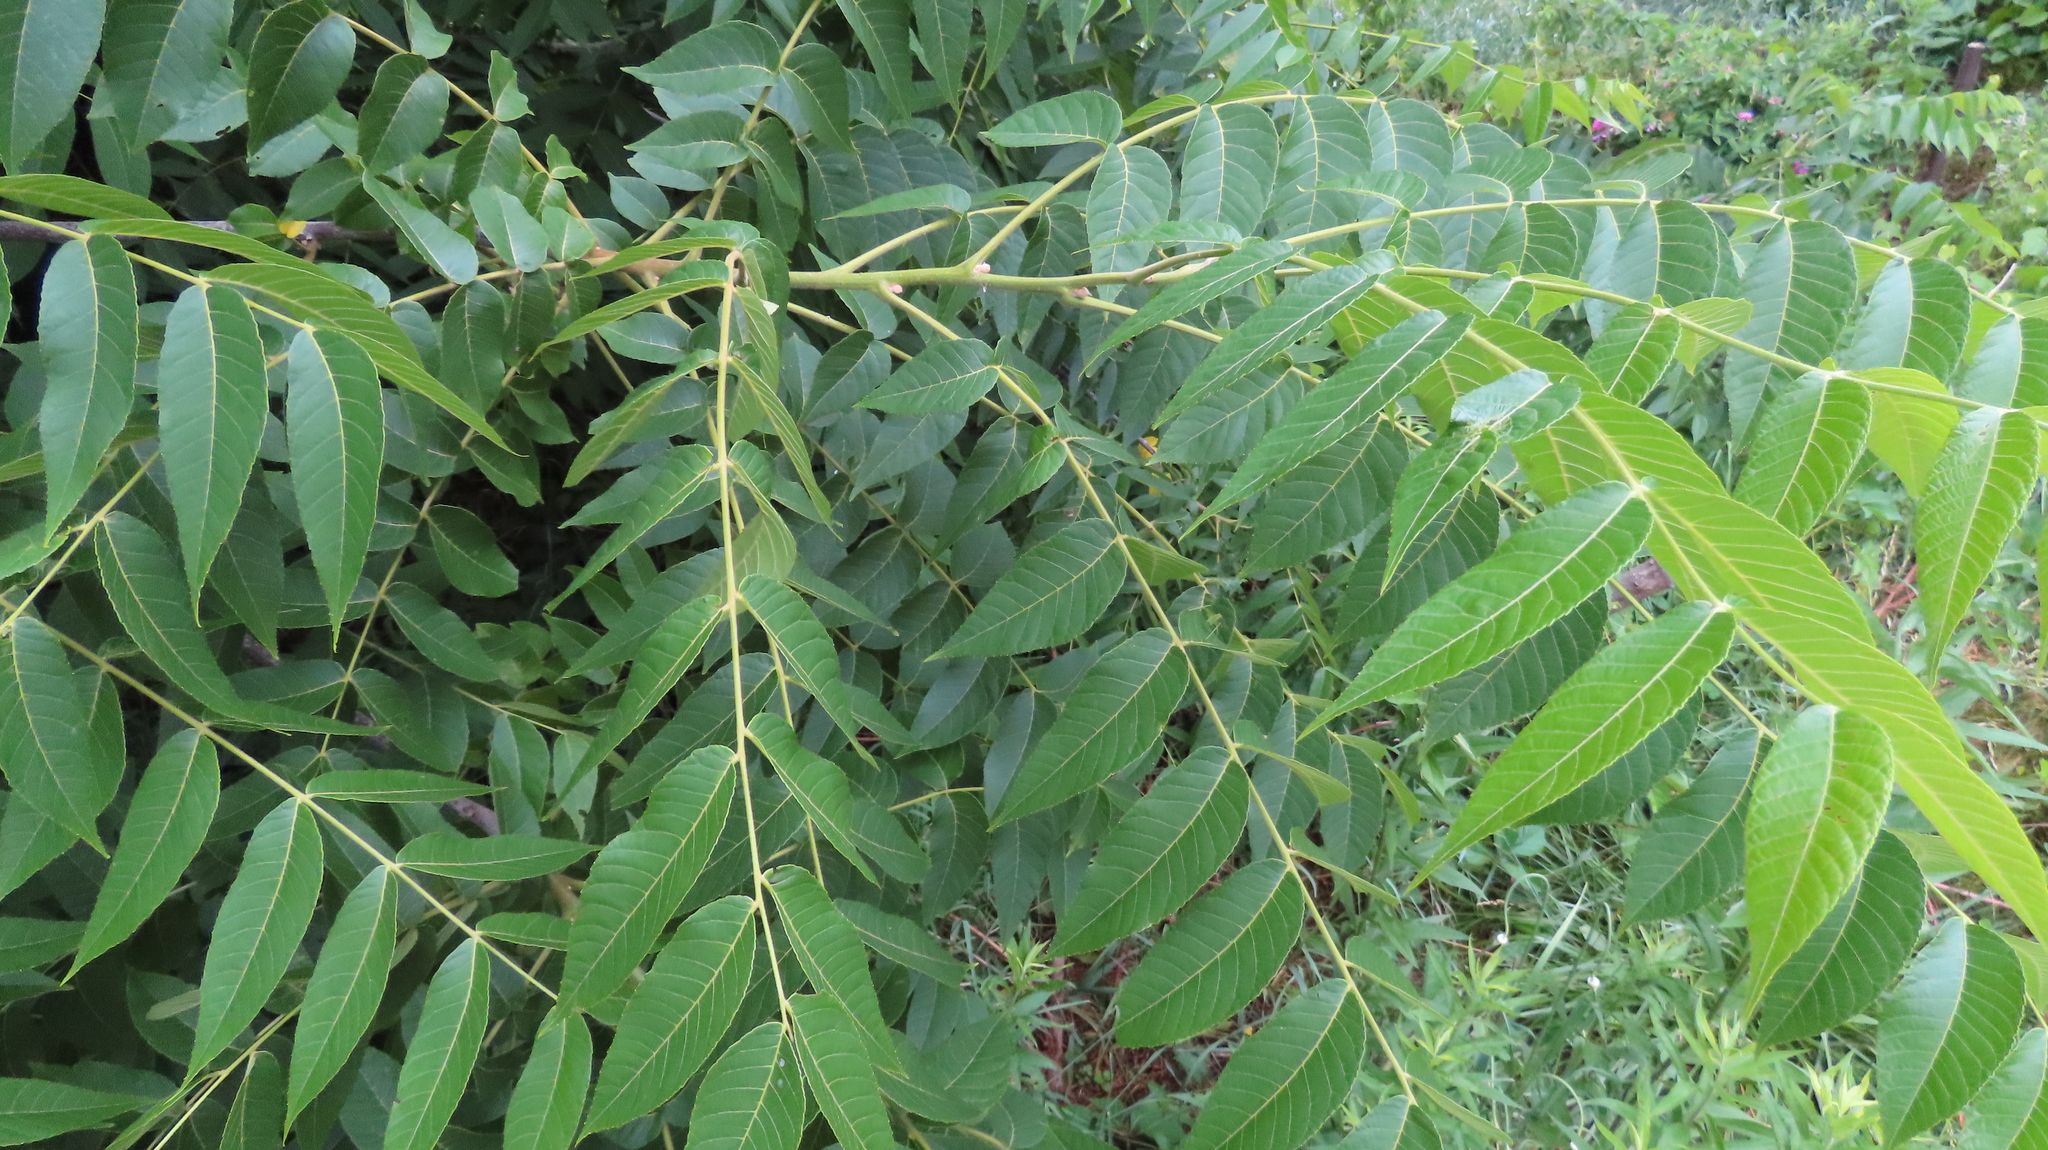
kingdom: Plantae
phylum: Tracheophyta
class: Magnoliopsida
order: Fagales
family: Juglandaceae
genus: Juglans
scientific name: Juglans nigra
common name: Black walnut
